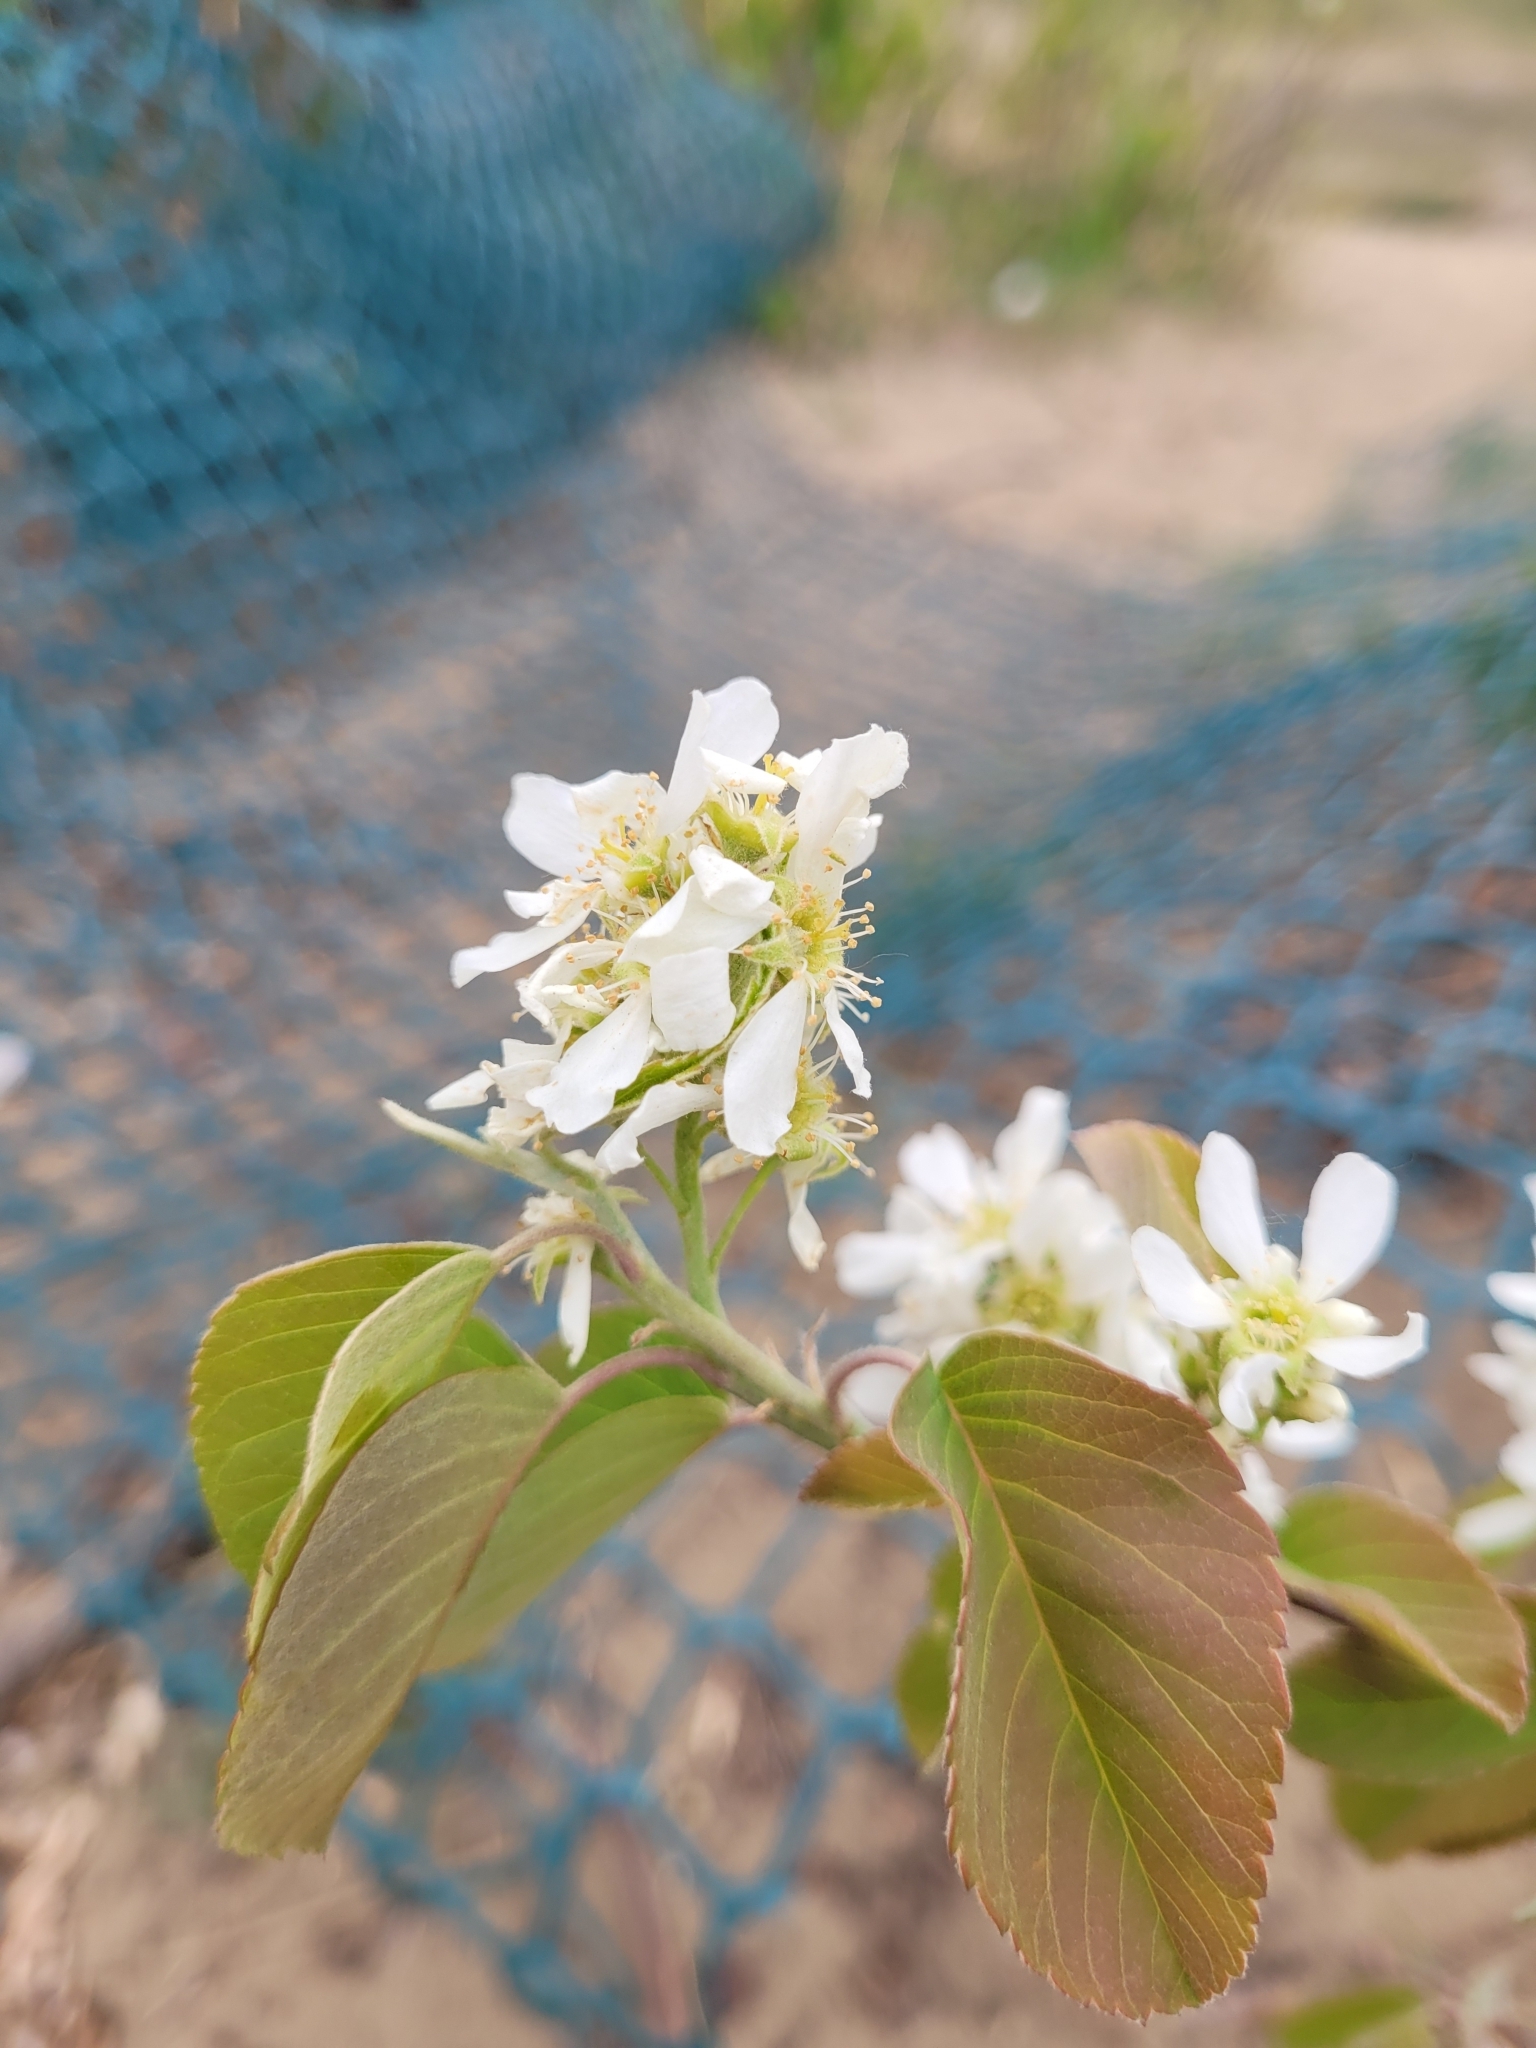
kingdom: Plantae
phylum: Tracheophyta
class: Magnoliopsida
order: Rosales
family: Rosaceae
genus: Amelanchier
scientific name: Amelanchier alnifolia
